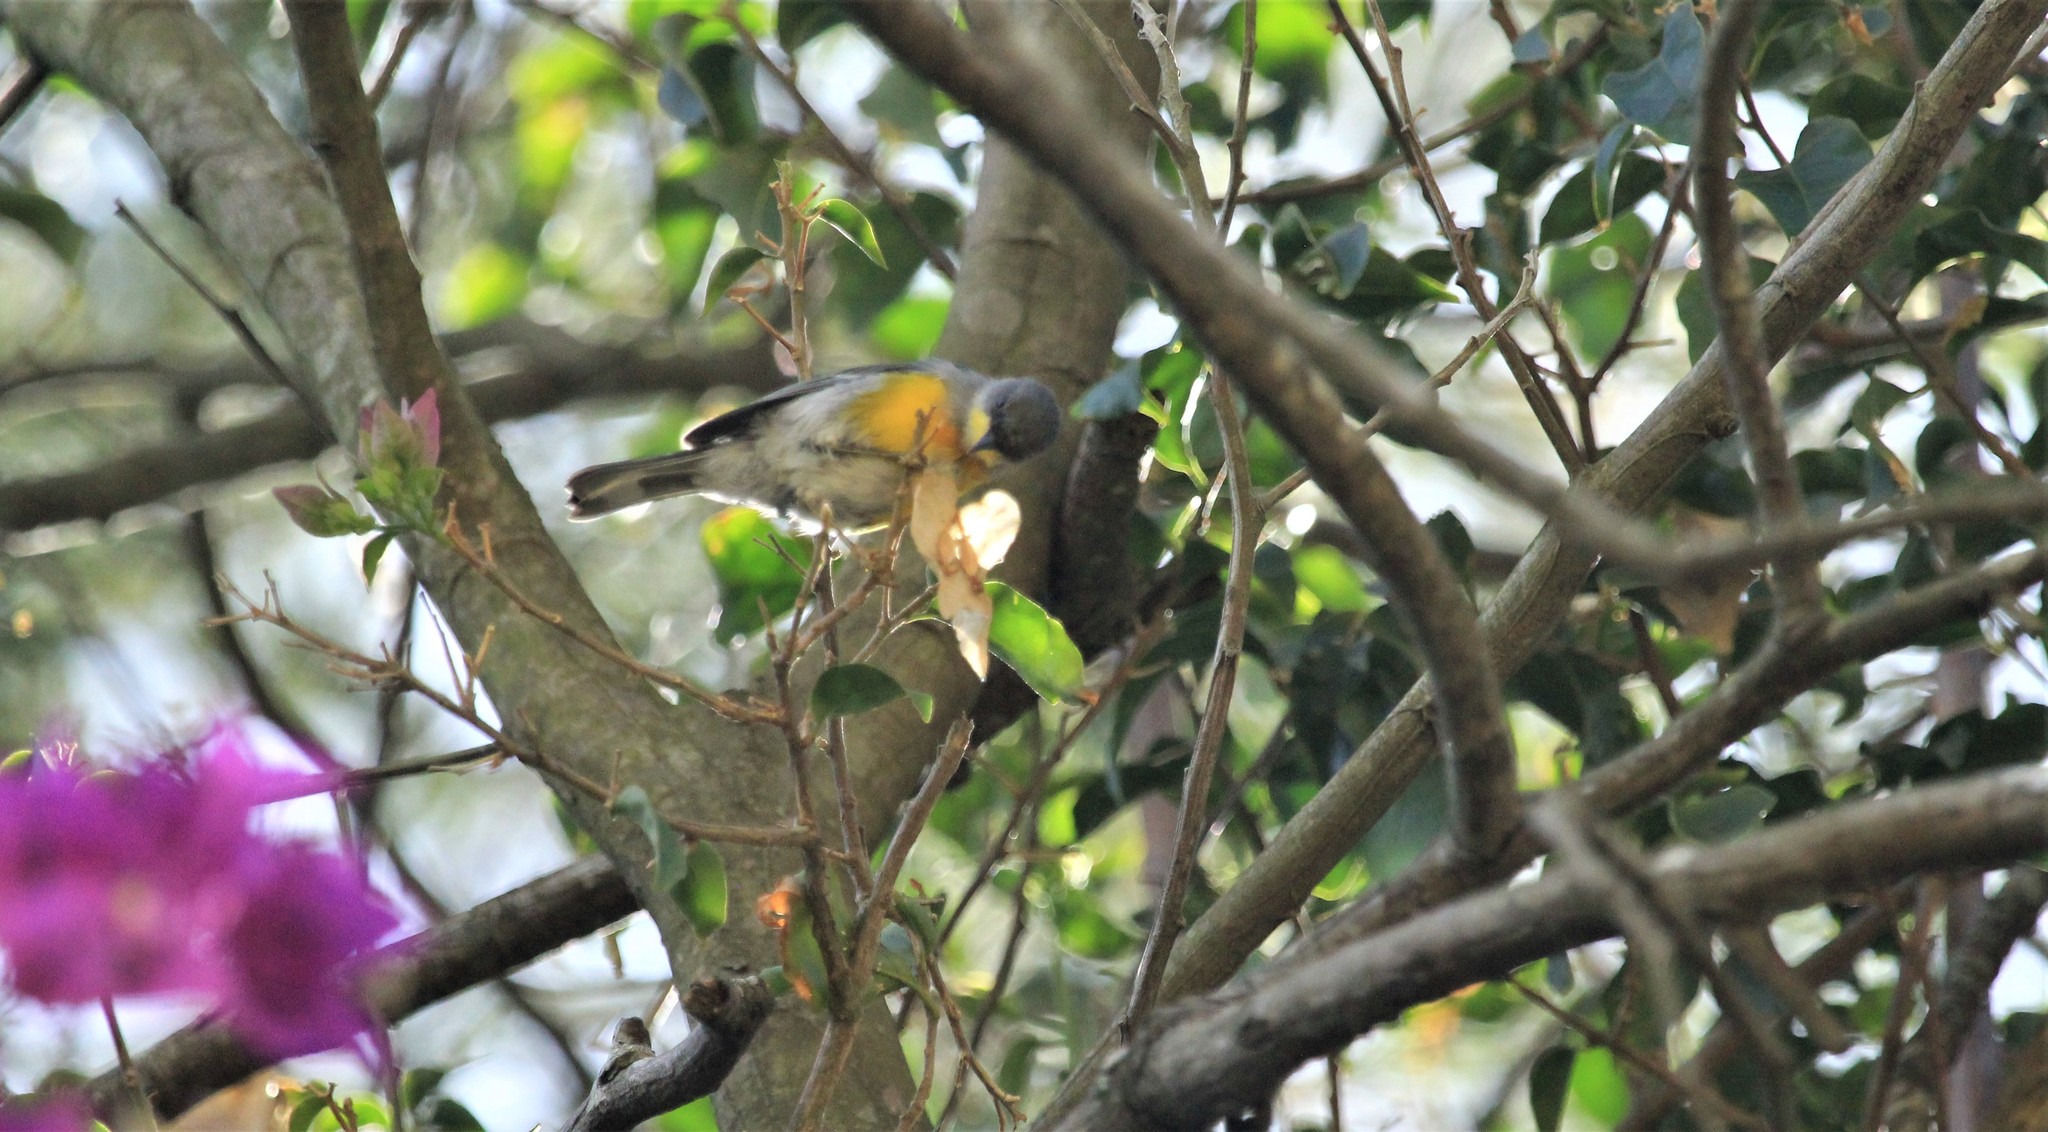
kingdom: Animalia
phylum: Chordata
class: Aves
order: Passeriformes
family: Parulidae
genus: Setophaga
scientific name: Setophaga pitiayumi
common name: Tropical parula
